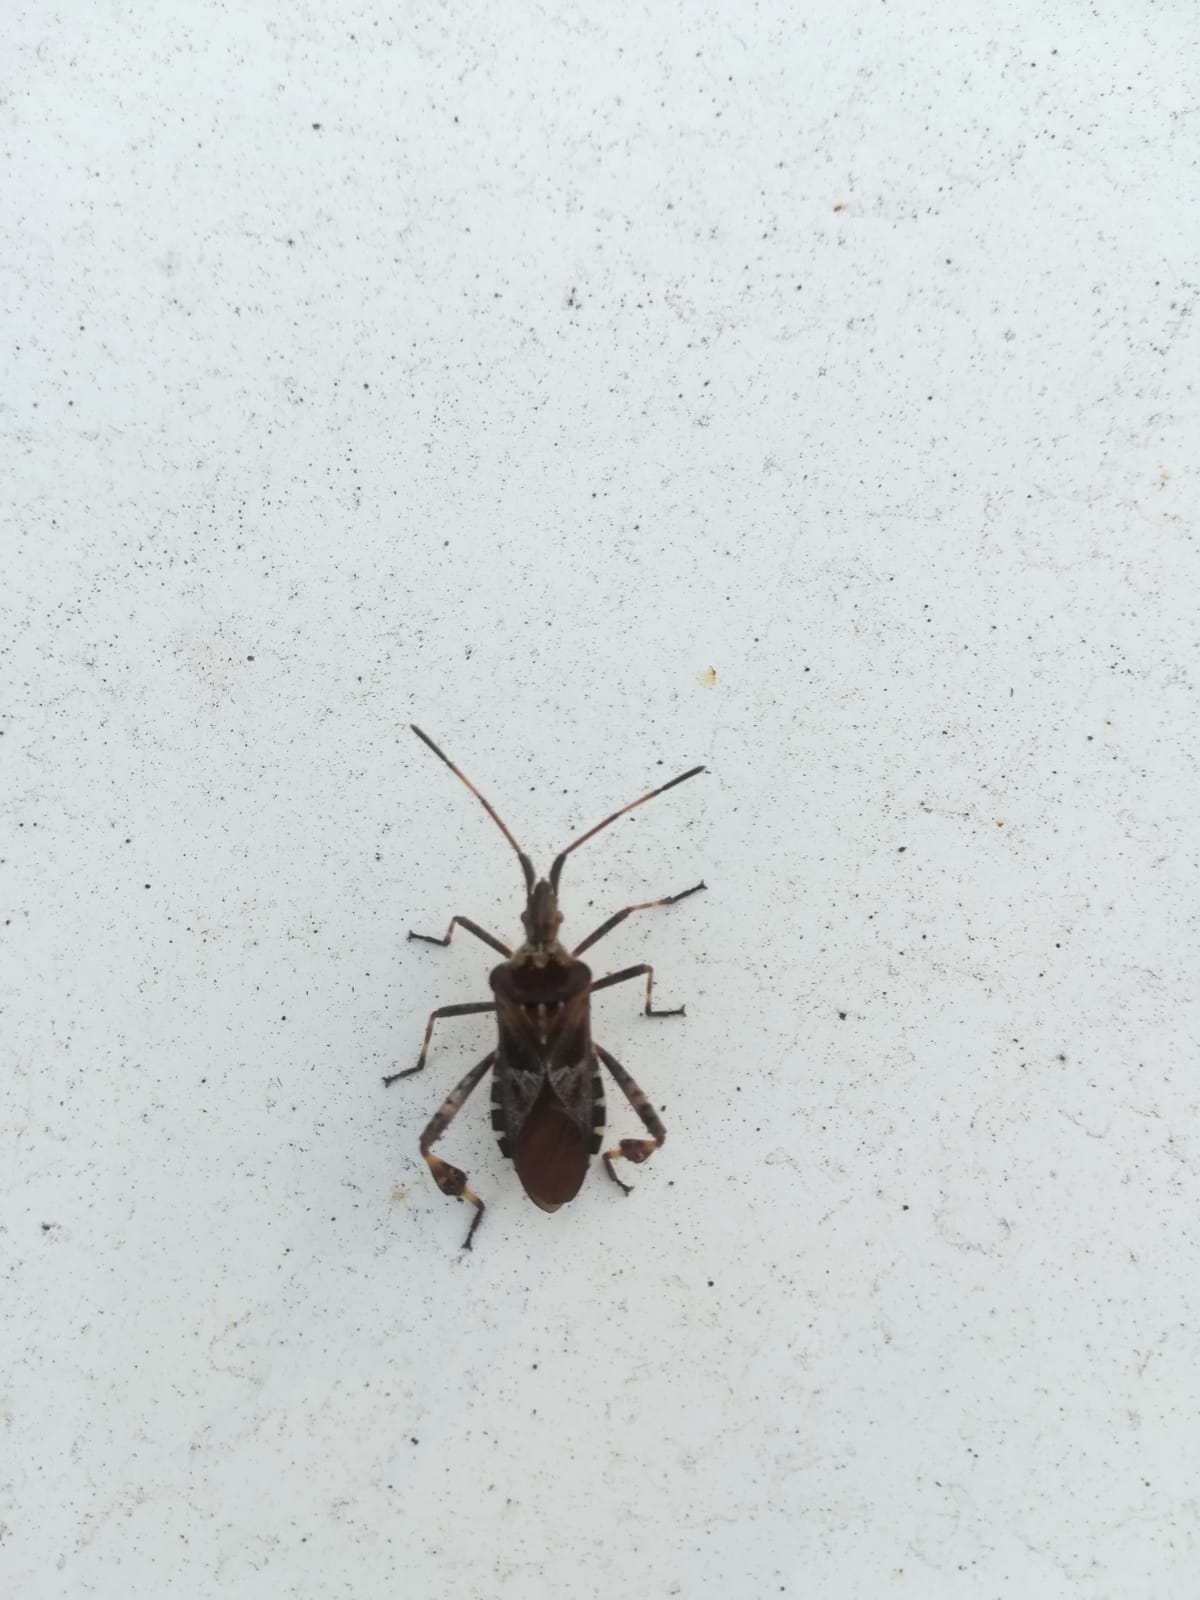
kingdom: Animalia
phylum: Arthropoda
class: Insecta
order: Hemiptera
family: Coreidae
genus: Leptoglossus
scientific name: Leptoglossus occidentalis
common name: Western conifer-seed bug
